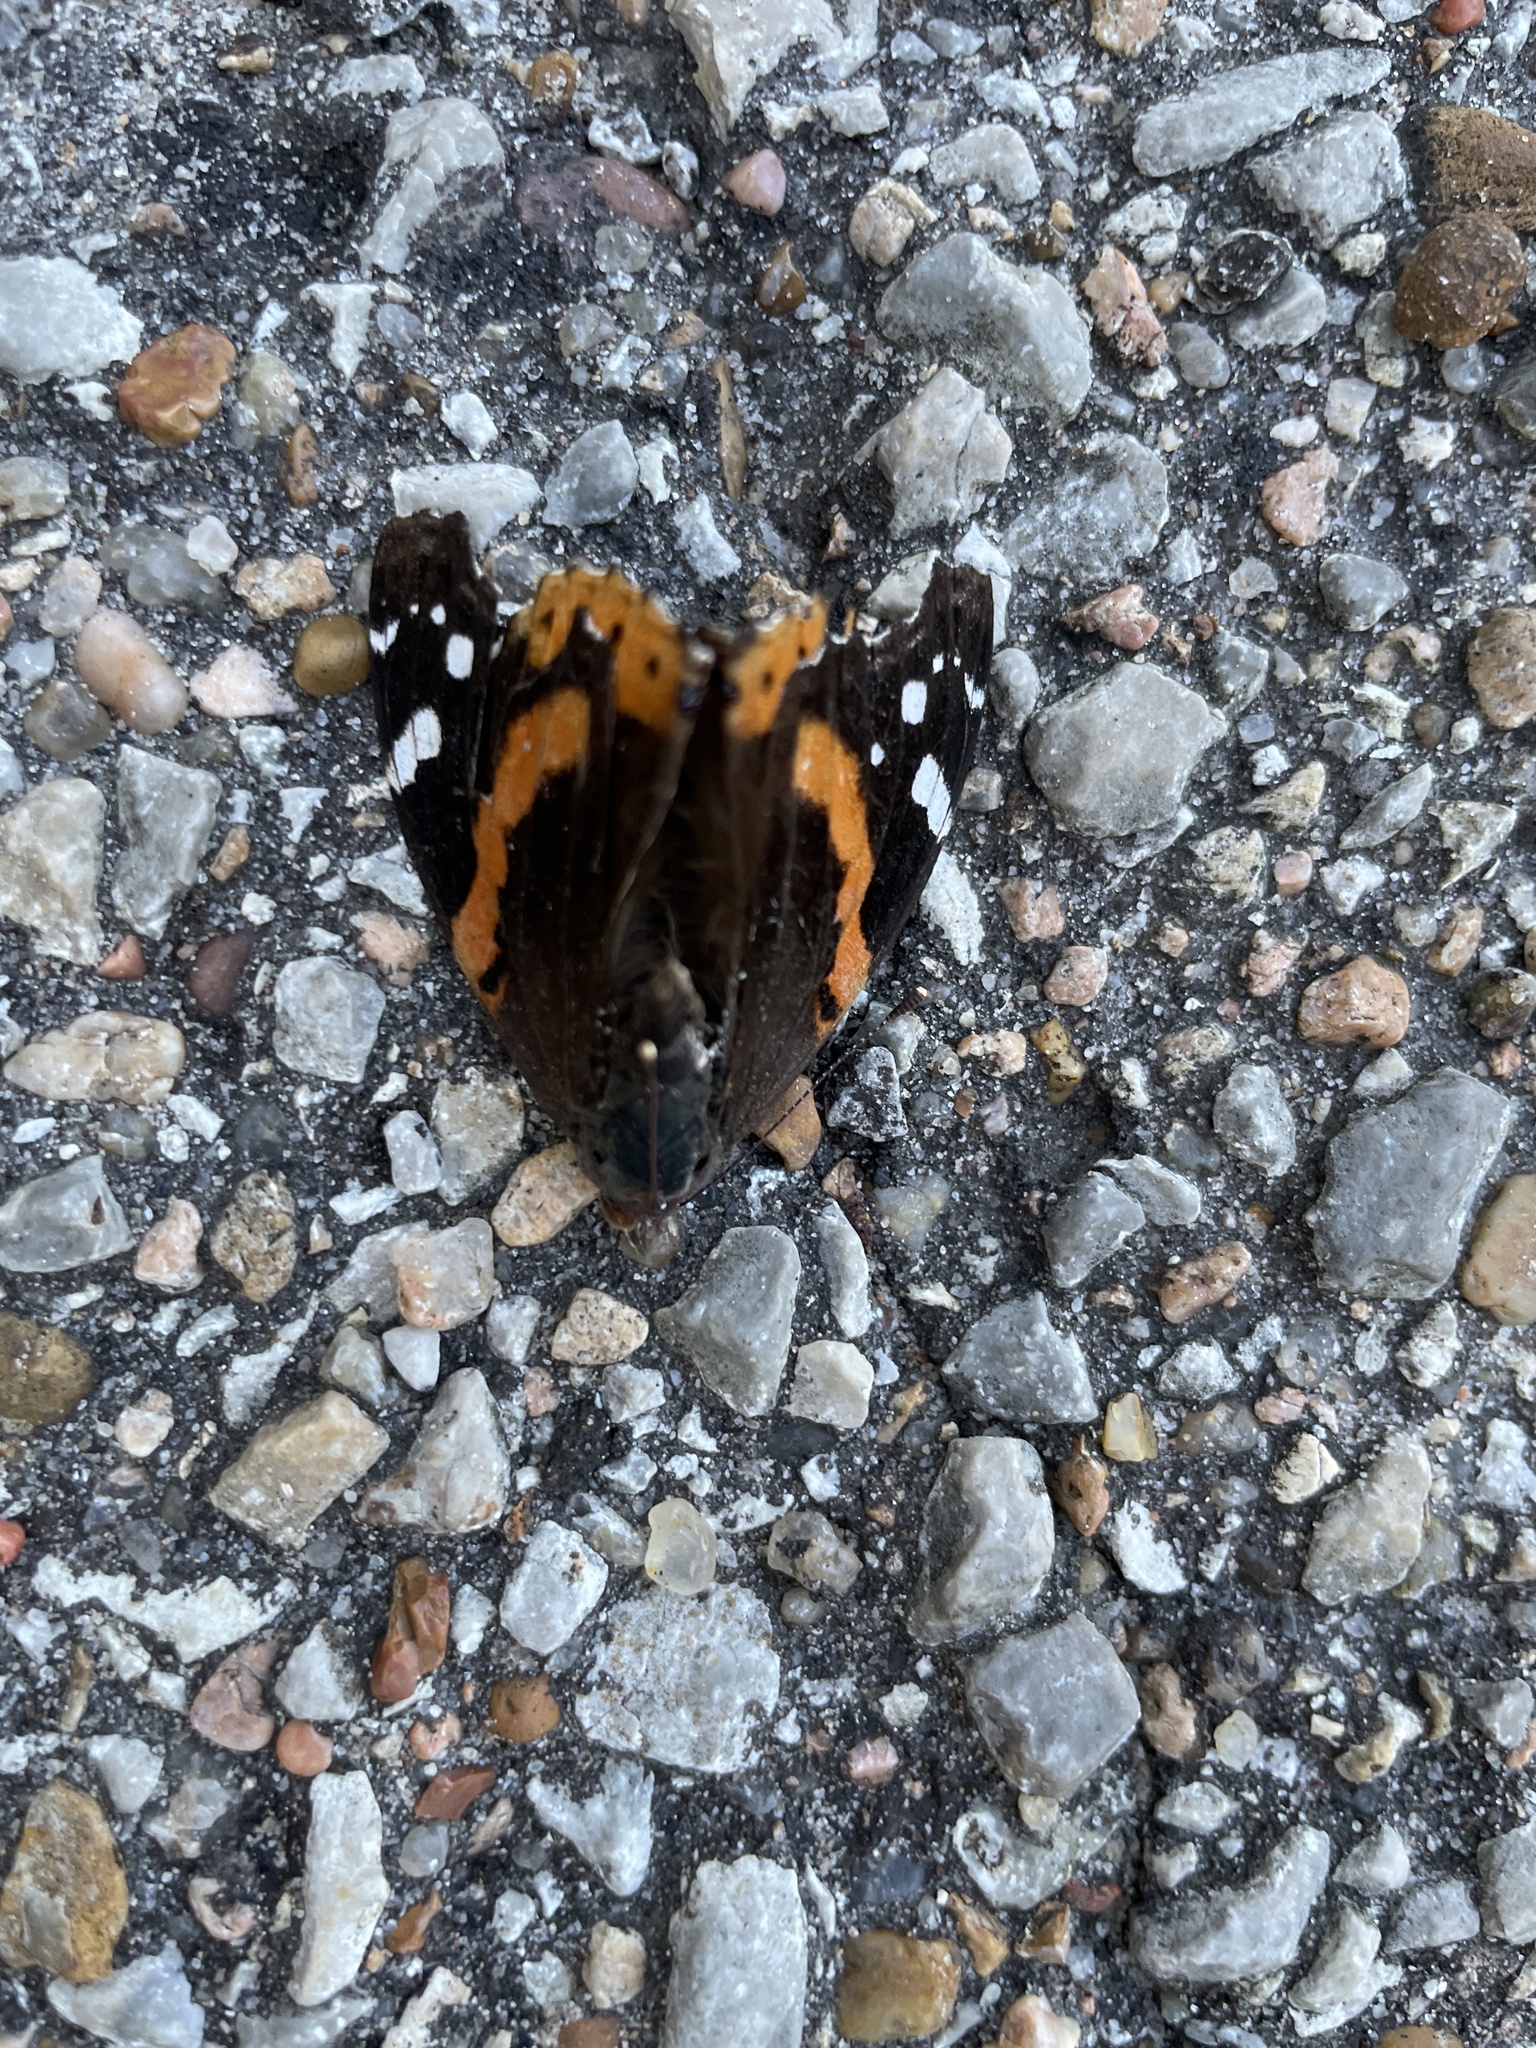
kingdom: Animalia
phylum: Arthropoda
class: Insecta
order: Lepidoptera
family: Nymphalidae
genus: Vanessa
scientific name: Vanessa atalanta
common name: Red admiral
